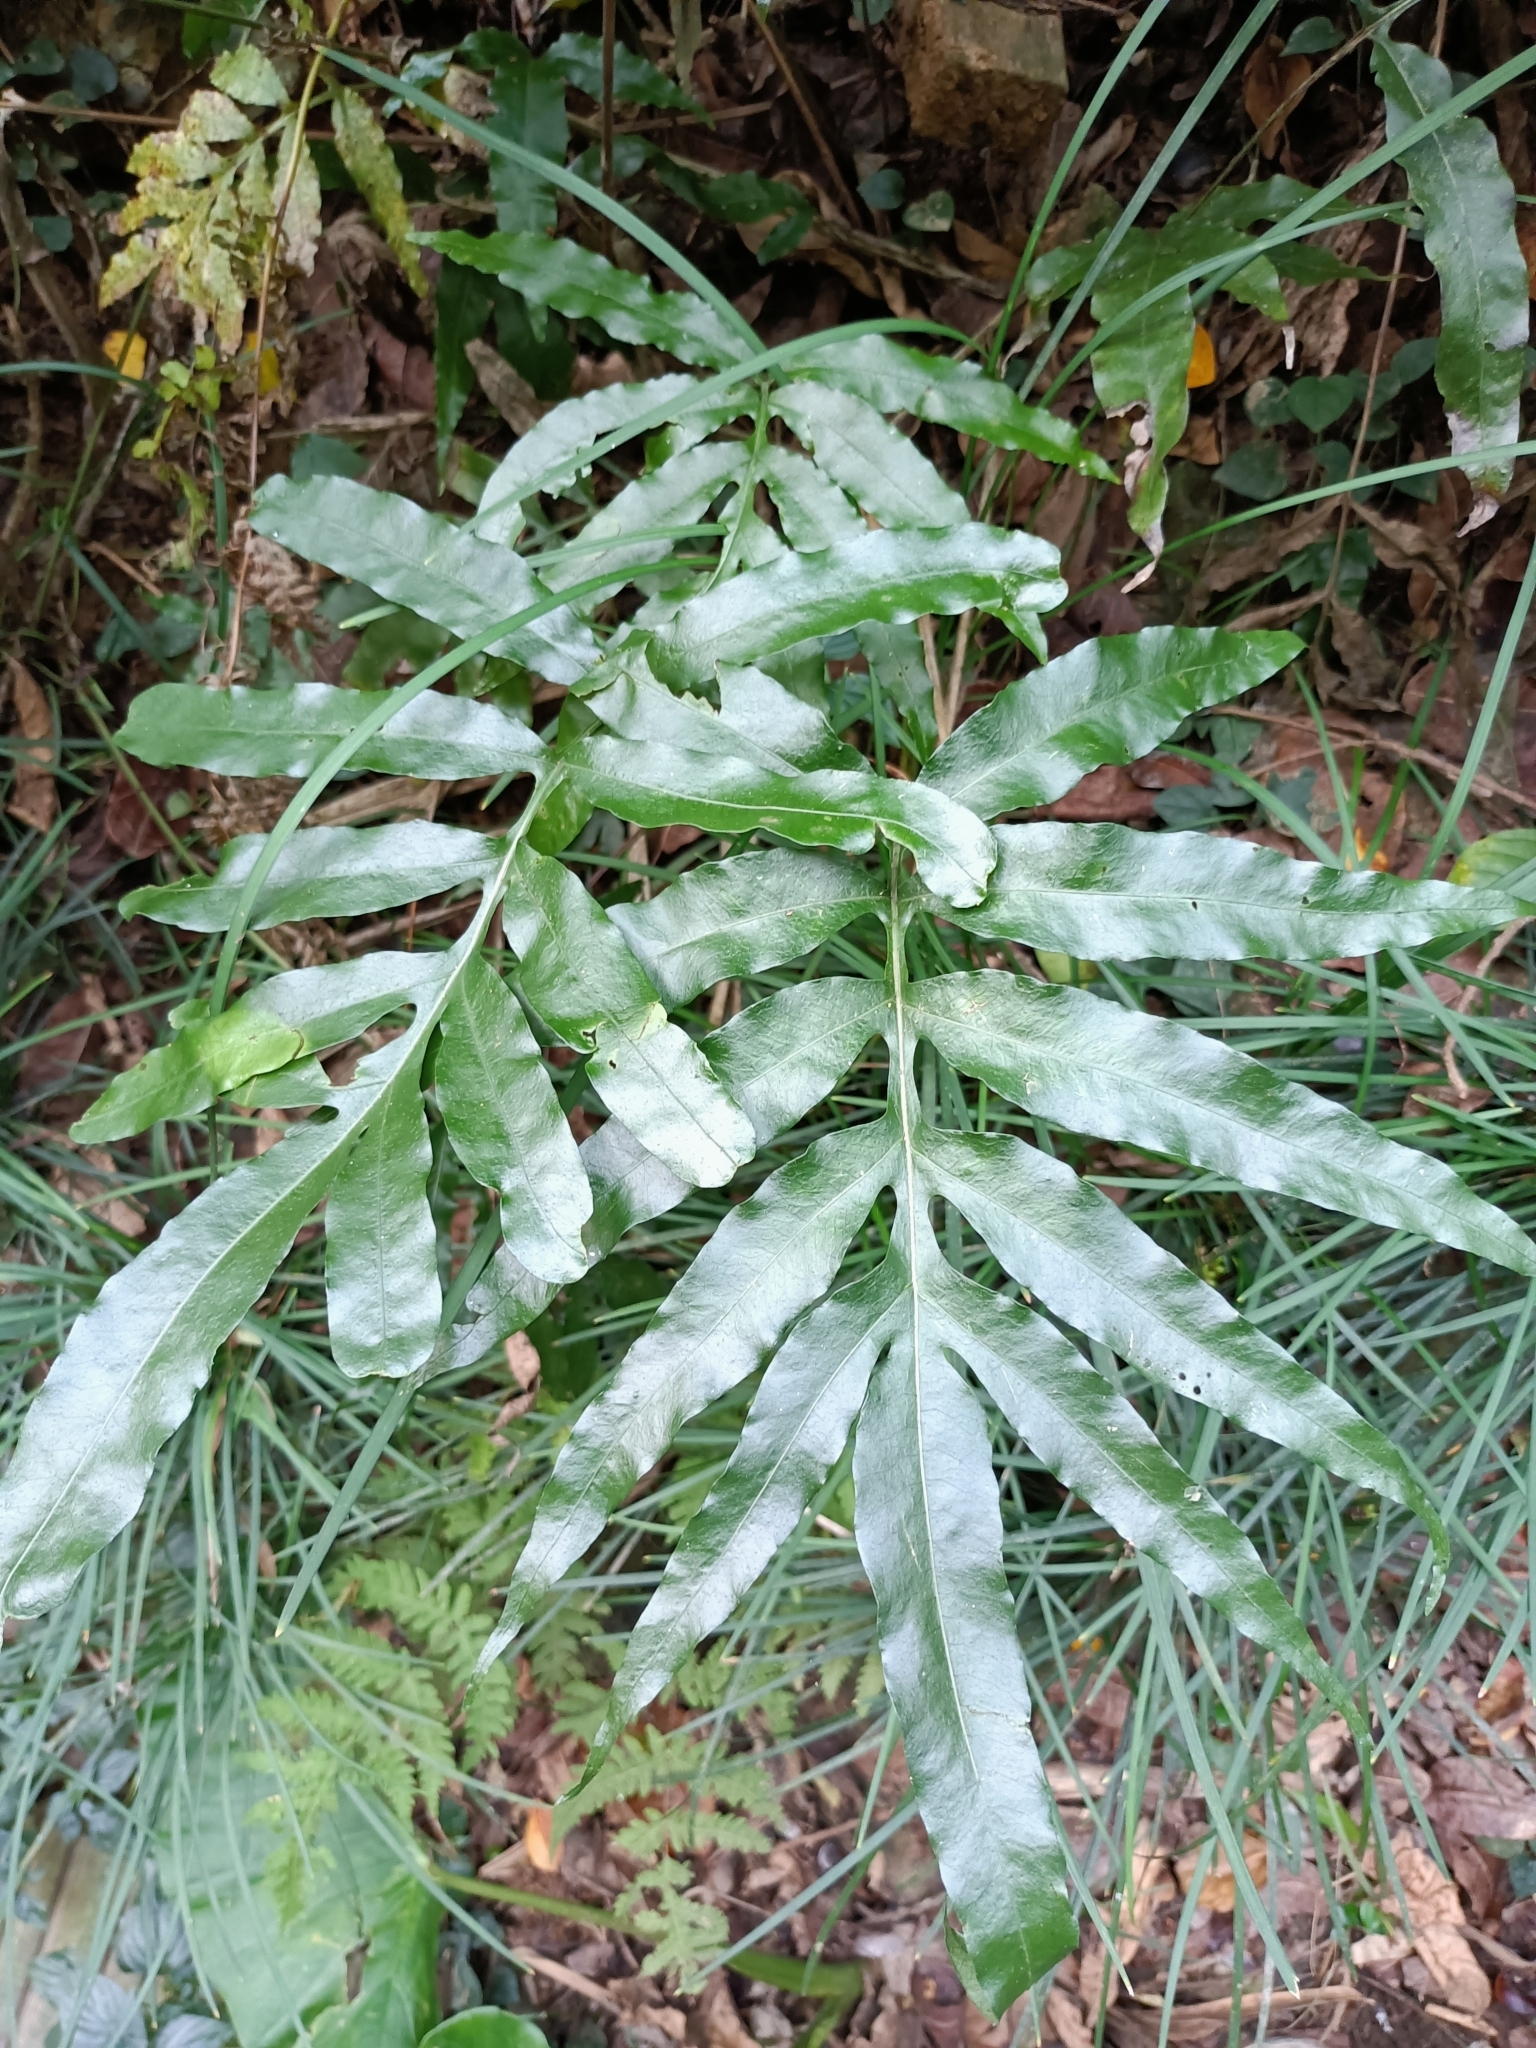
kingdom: Plantae
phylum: Tracheophyta
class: Polypodiopsida
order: Polypodiales
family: Polypodiaceae
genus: Leptochilus
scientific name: Leptochilus ellipticus
